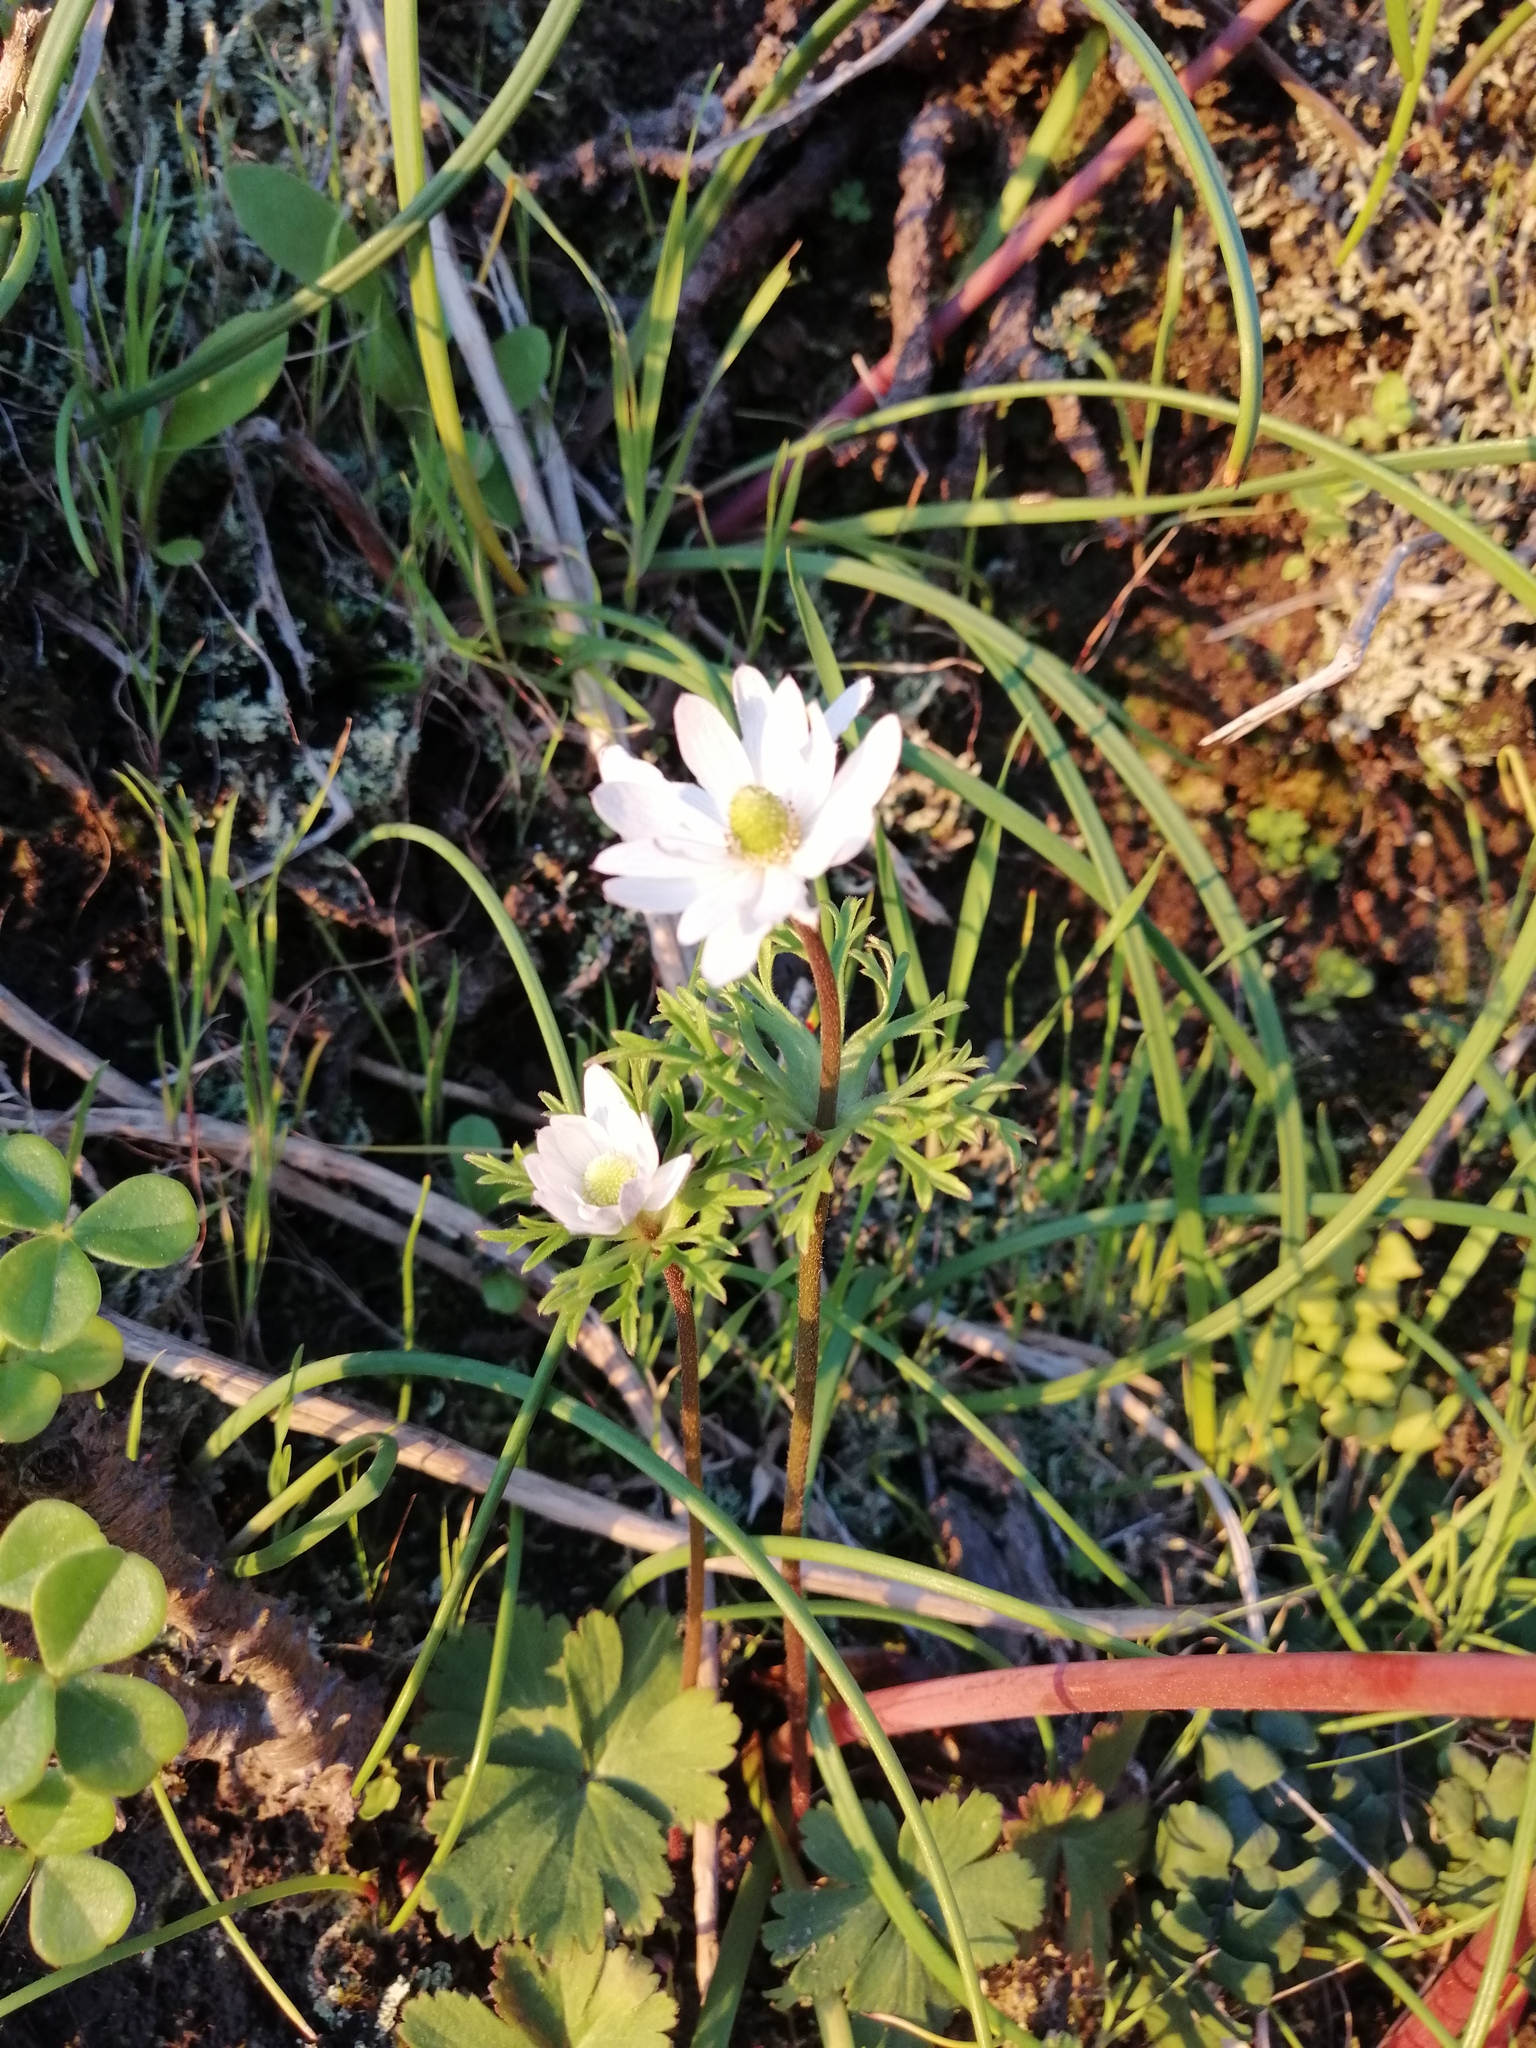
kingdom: Plantae
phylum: Tracheophyta
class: Magnoliopsida
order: Ranunculales
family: Ranunculaceae
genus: Anemone
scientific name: Anemone decapetala
